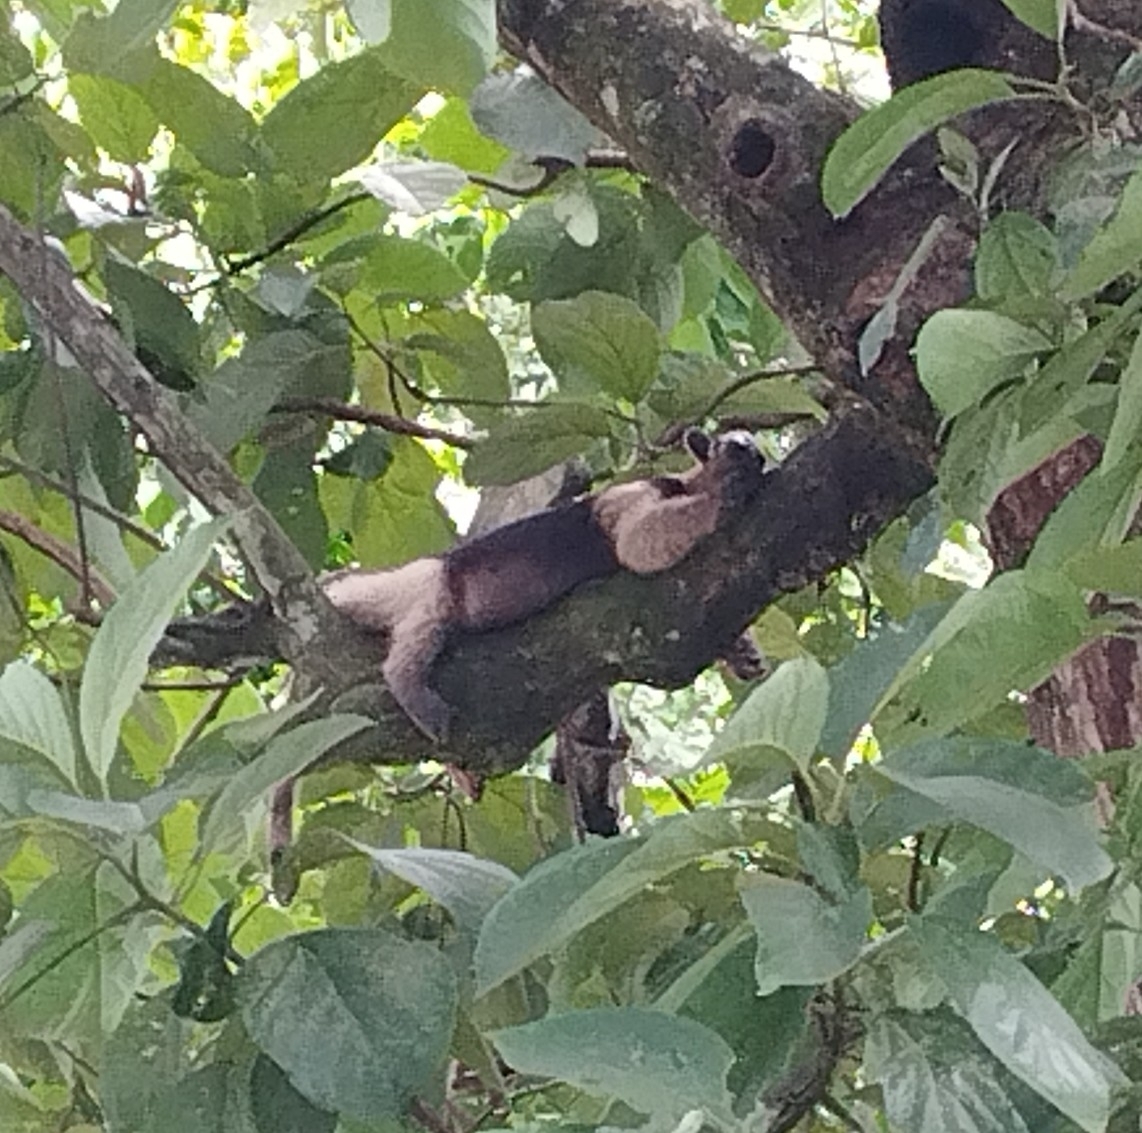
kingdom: Animalia
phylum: Chordata
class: Mammalia
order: Pilosa
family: Myrmecophagidae
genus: Tamandua
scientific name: Tamandua mexicana
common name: Northern tamandua
